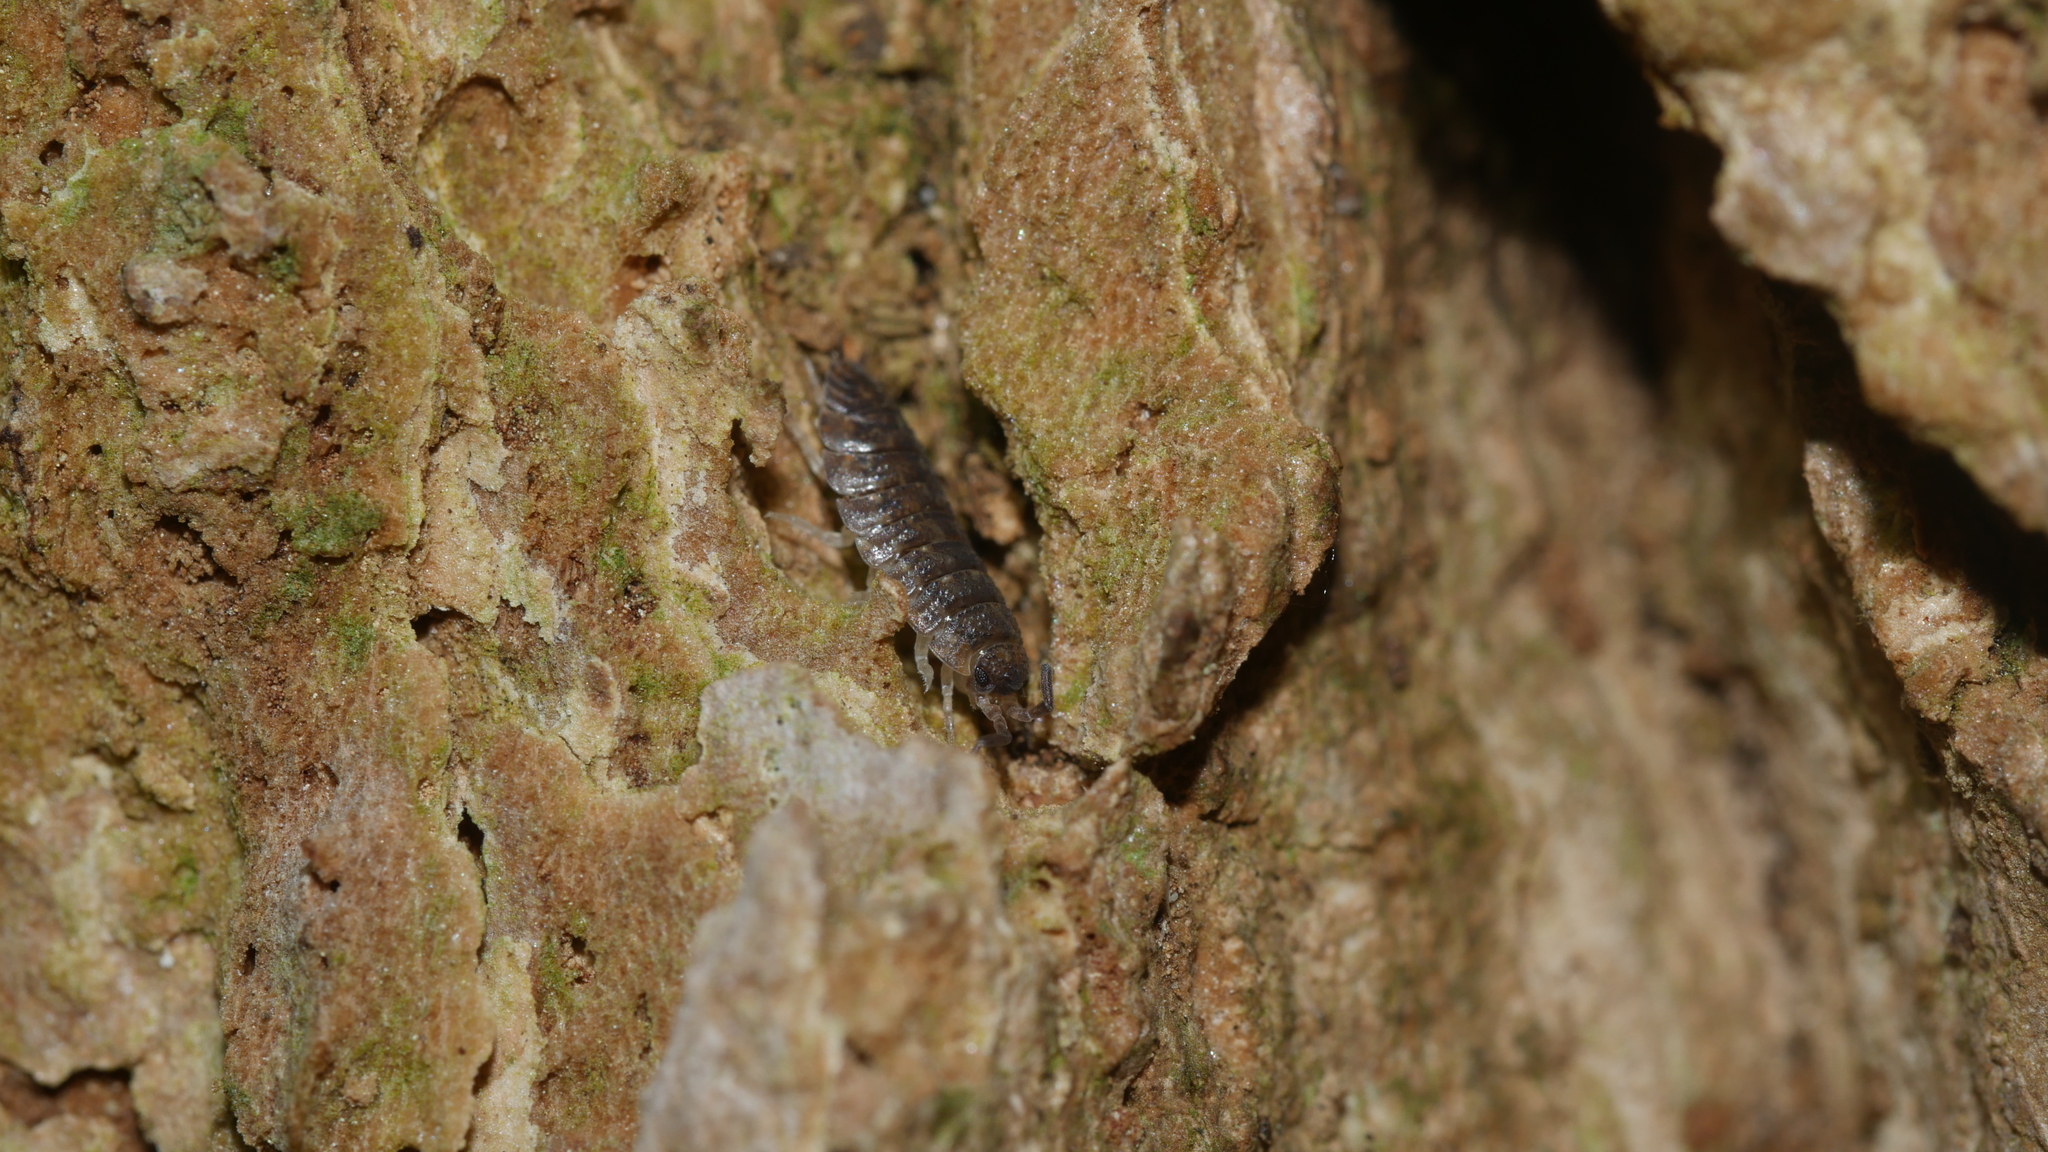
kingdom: Animalia
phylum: Arthropoda
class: Malacostraca
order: Isopoda
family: Porcellionidae
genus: Porcellio
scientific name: Porcellio scaber
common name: Common rough woodlouse
